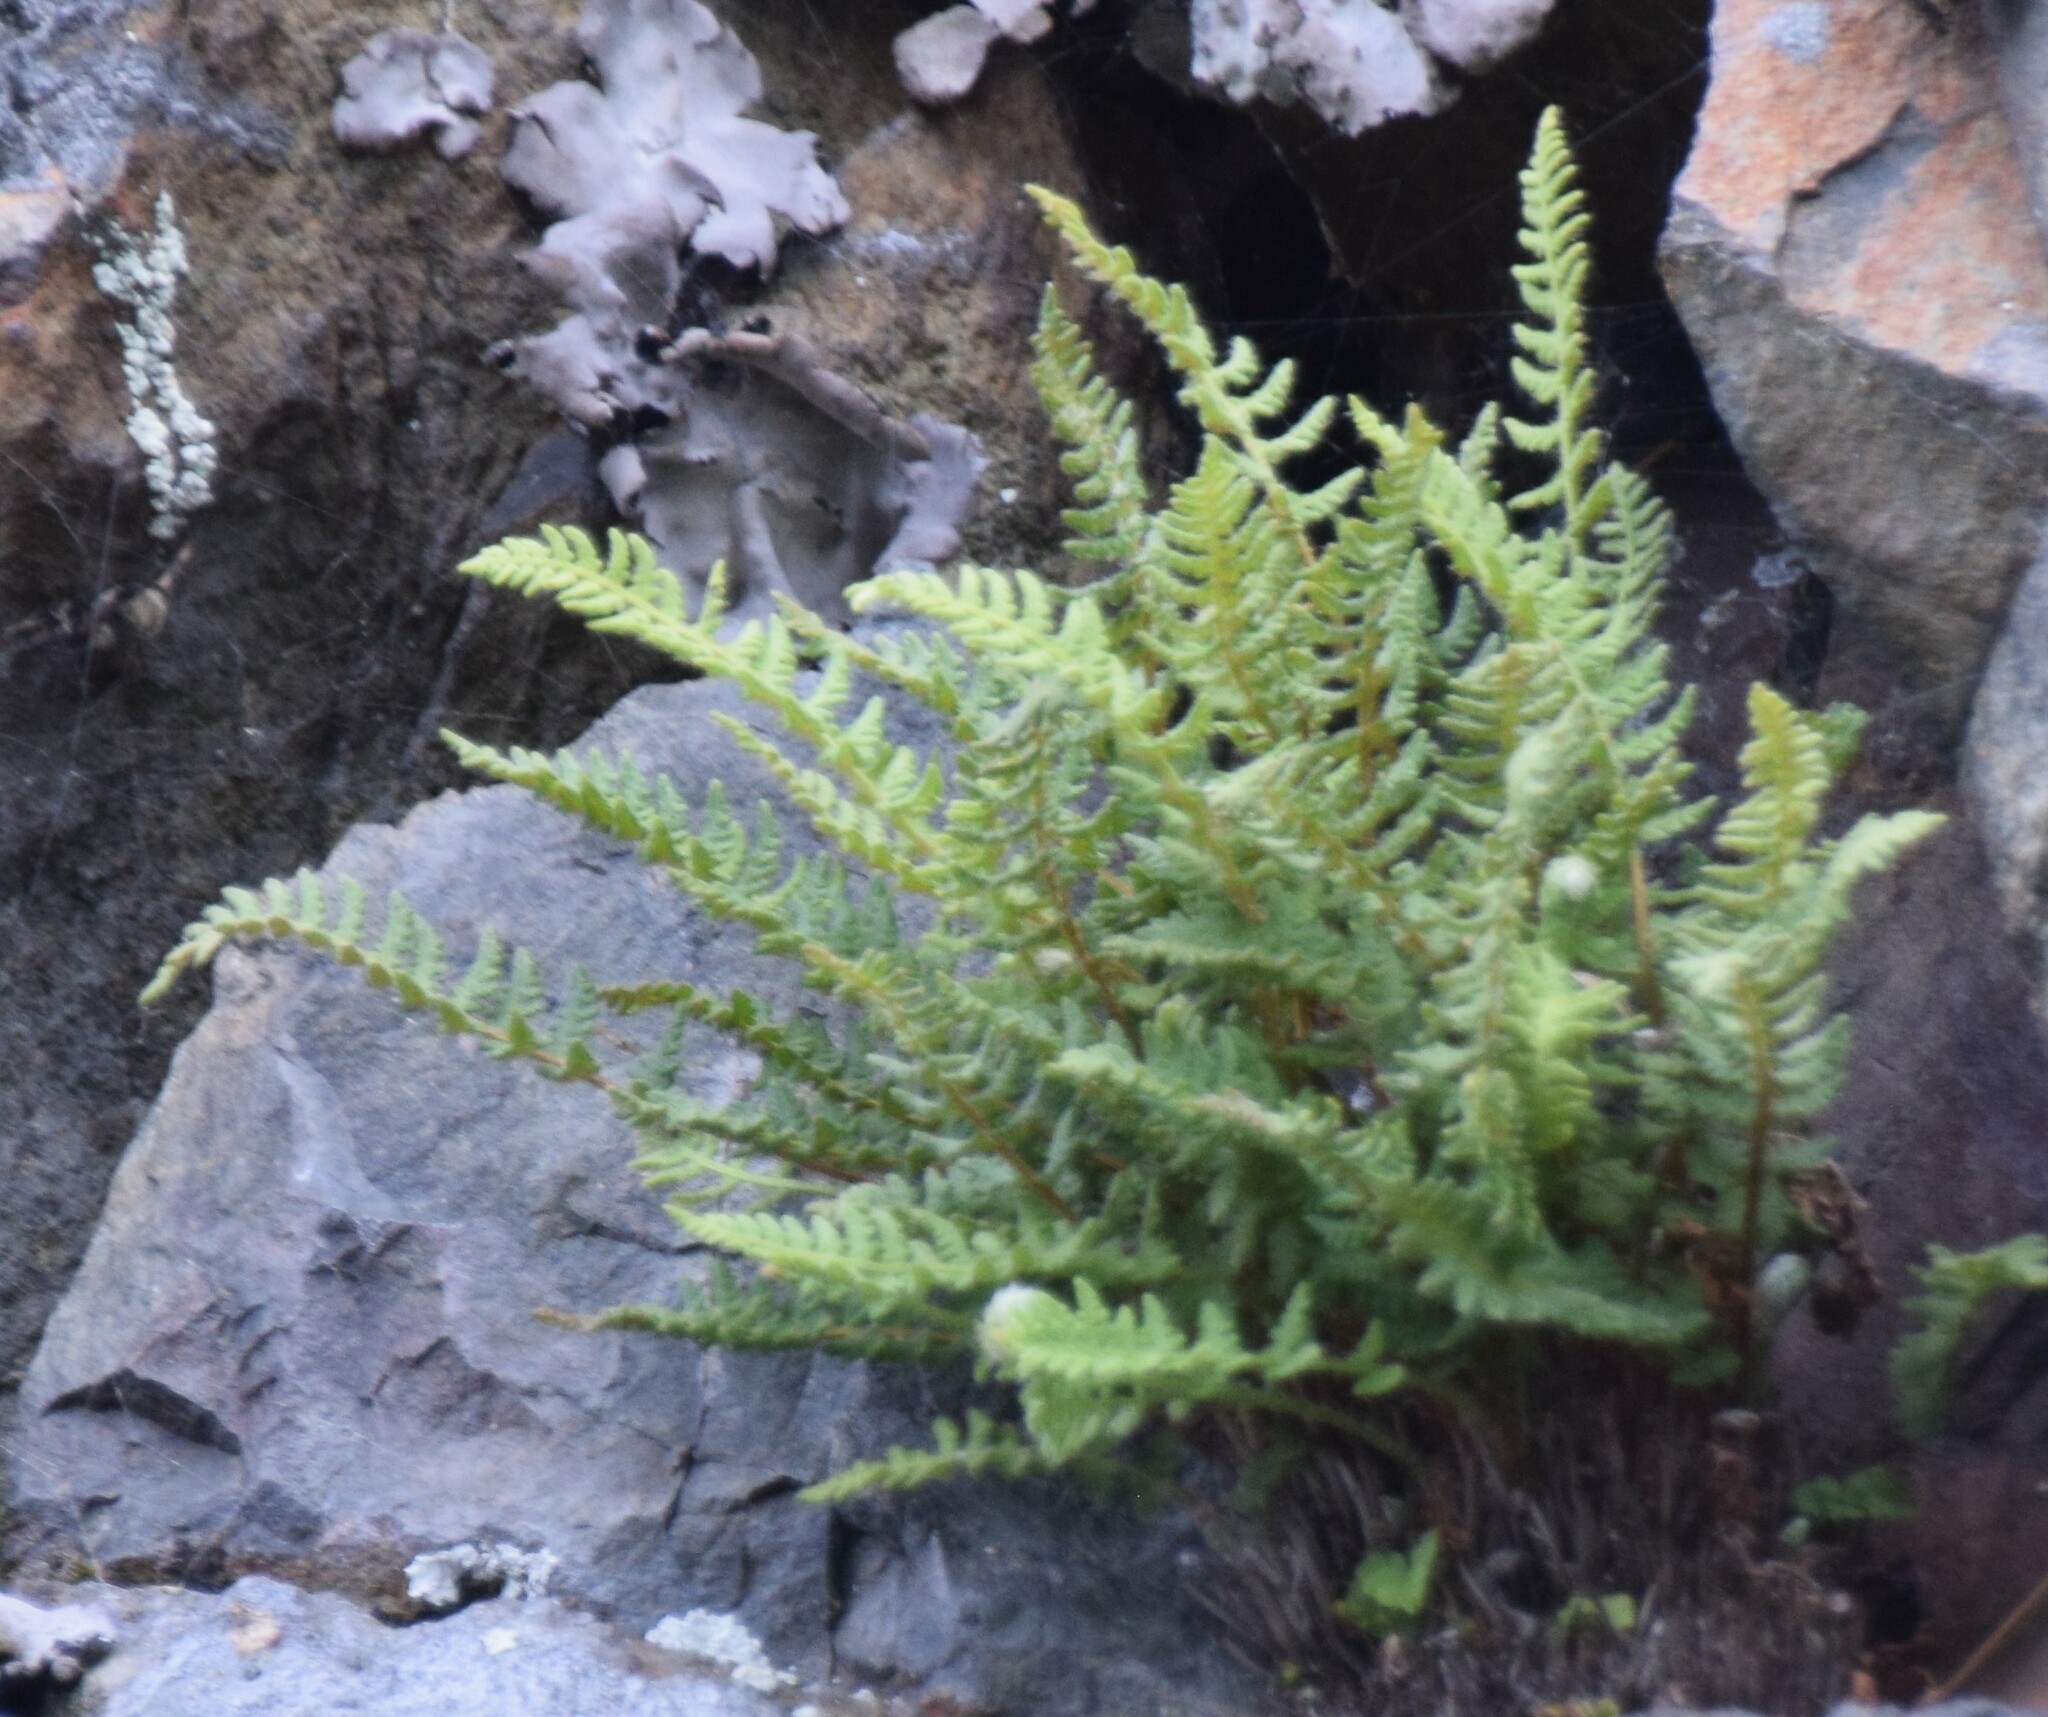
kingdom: Plantae
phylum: Tracheophyta
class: Polypodiopsida
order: Polypodiales
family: Woodsiaceae
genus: Woodsia
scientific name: Woodsia ilvensis
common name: Fragrant woodsia
